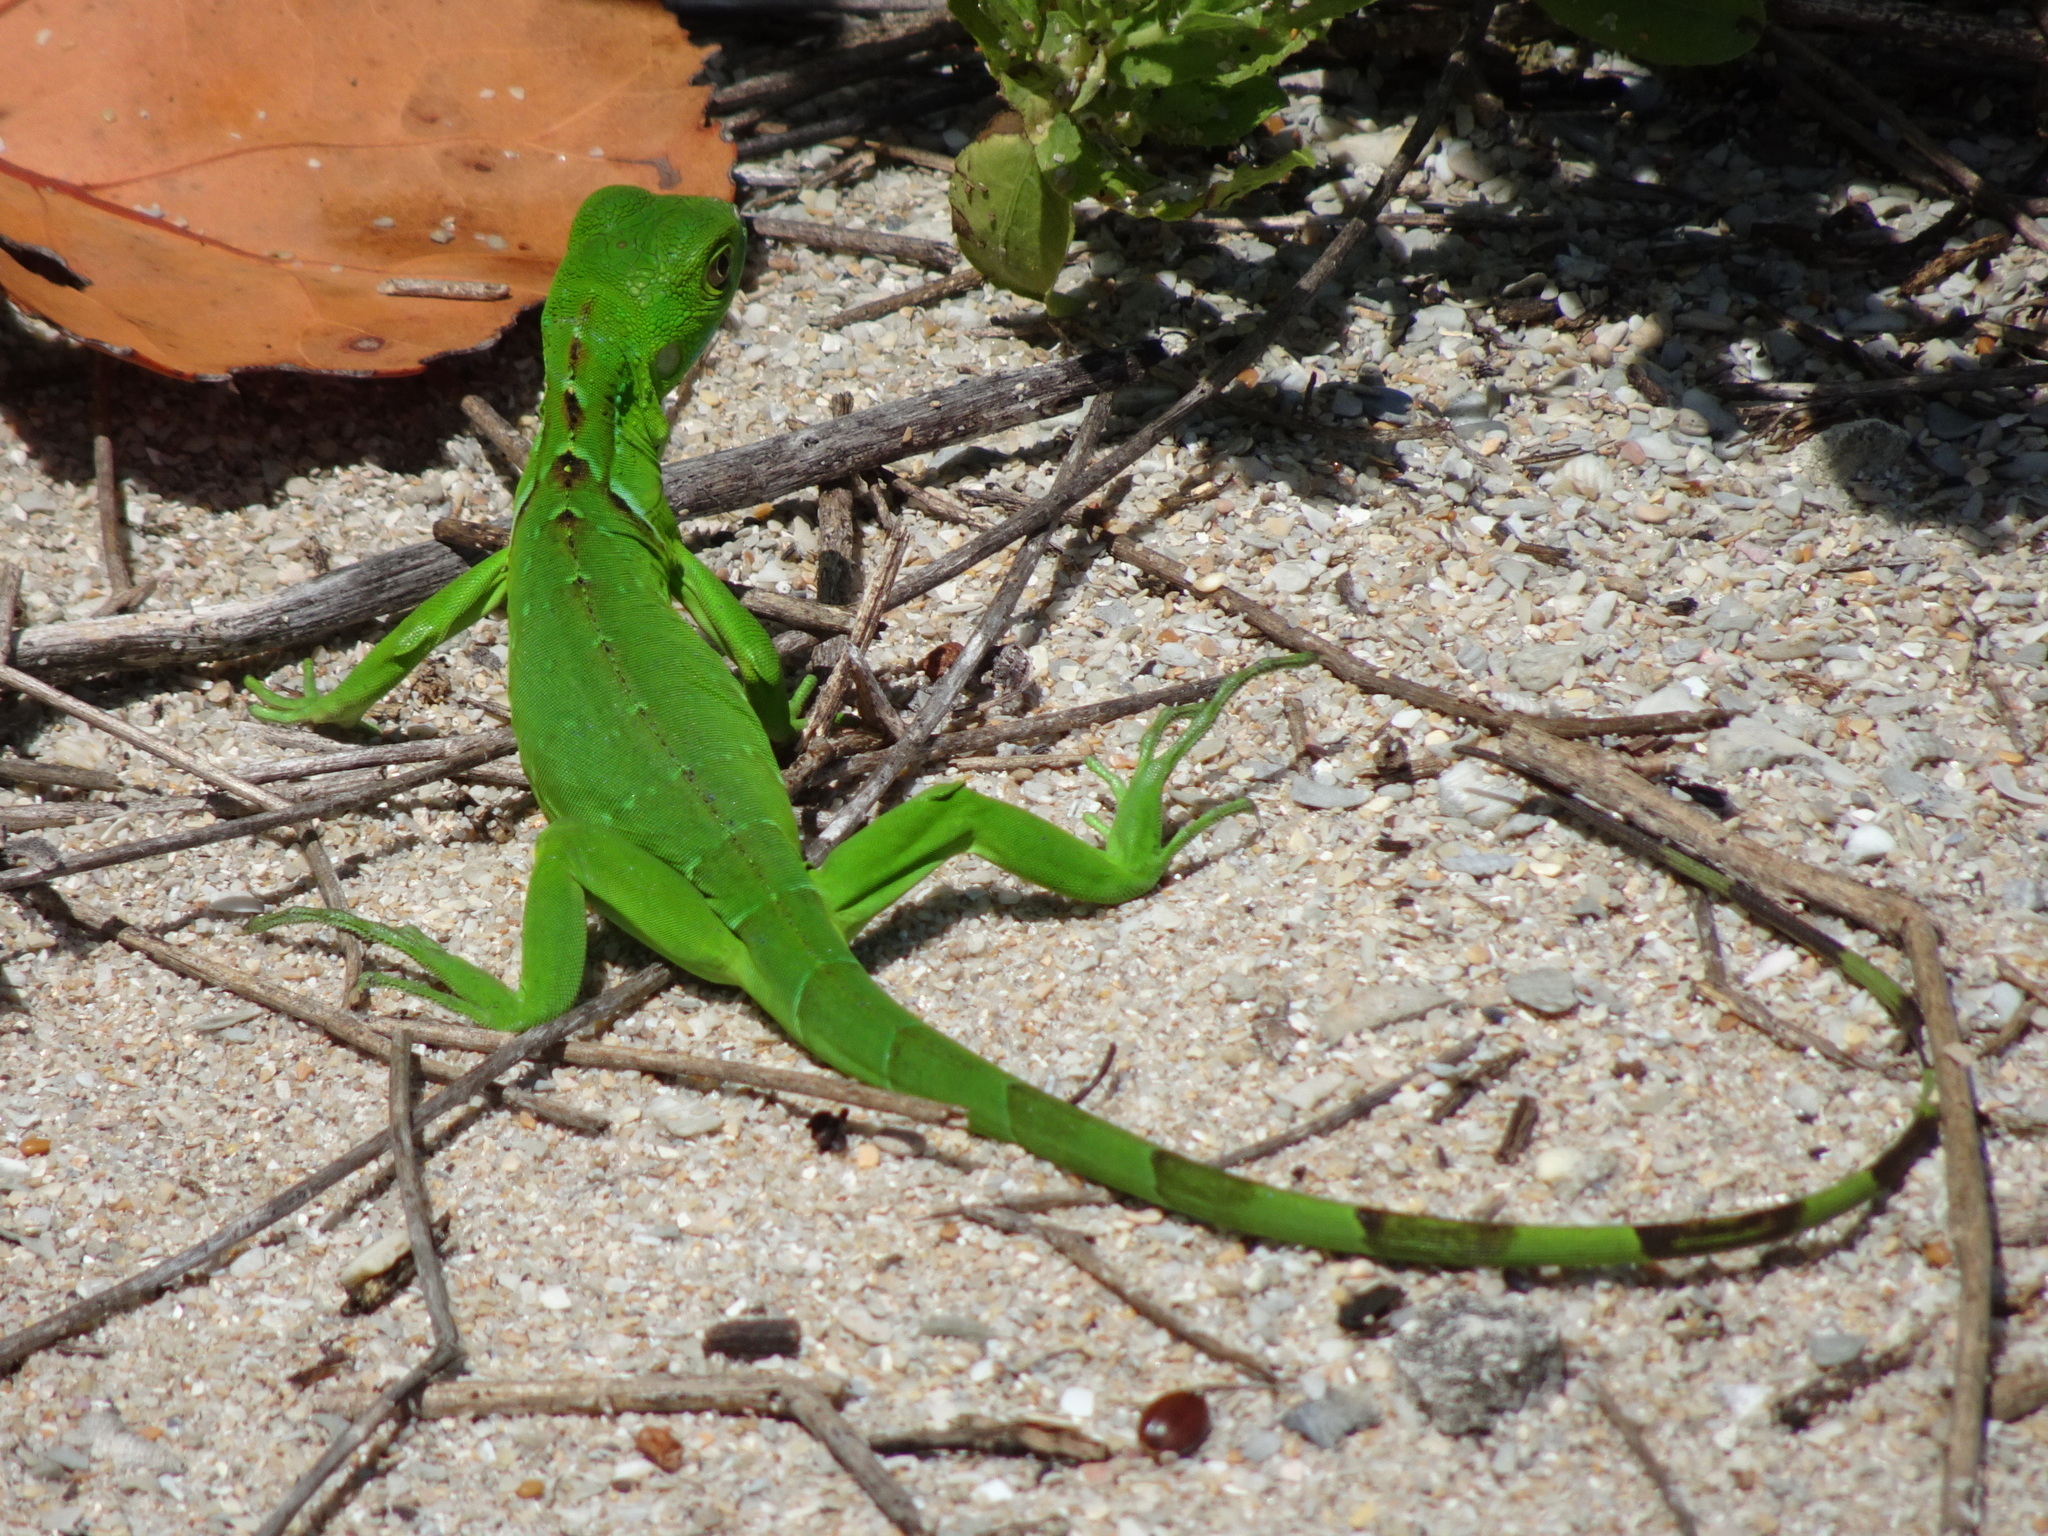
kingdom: Animalia
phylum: Chordata
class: Squamata
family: Iguanidae
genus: Iguana
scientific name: Iguana iguana
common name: Green iguana
